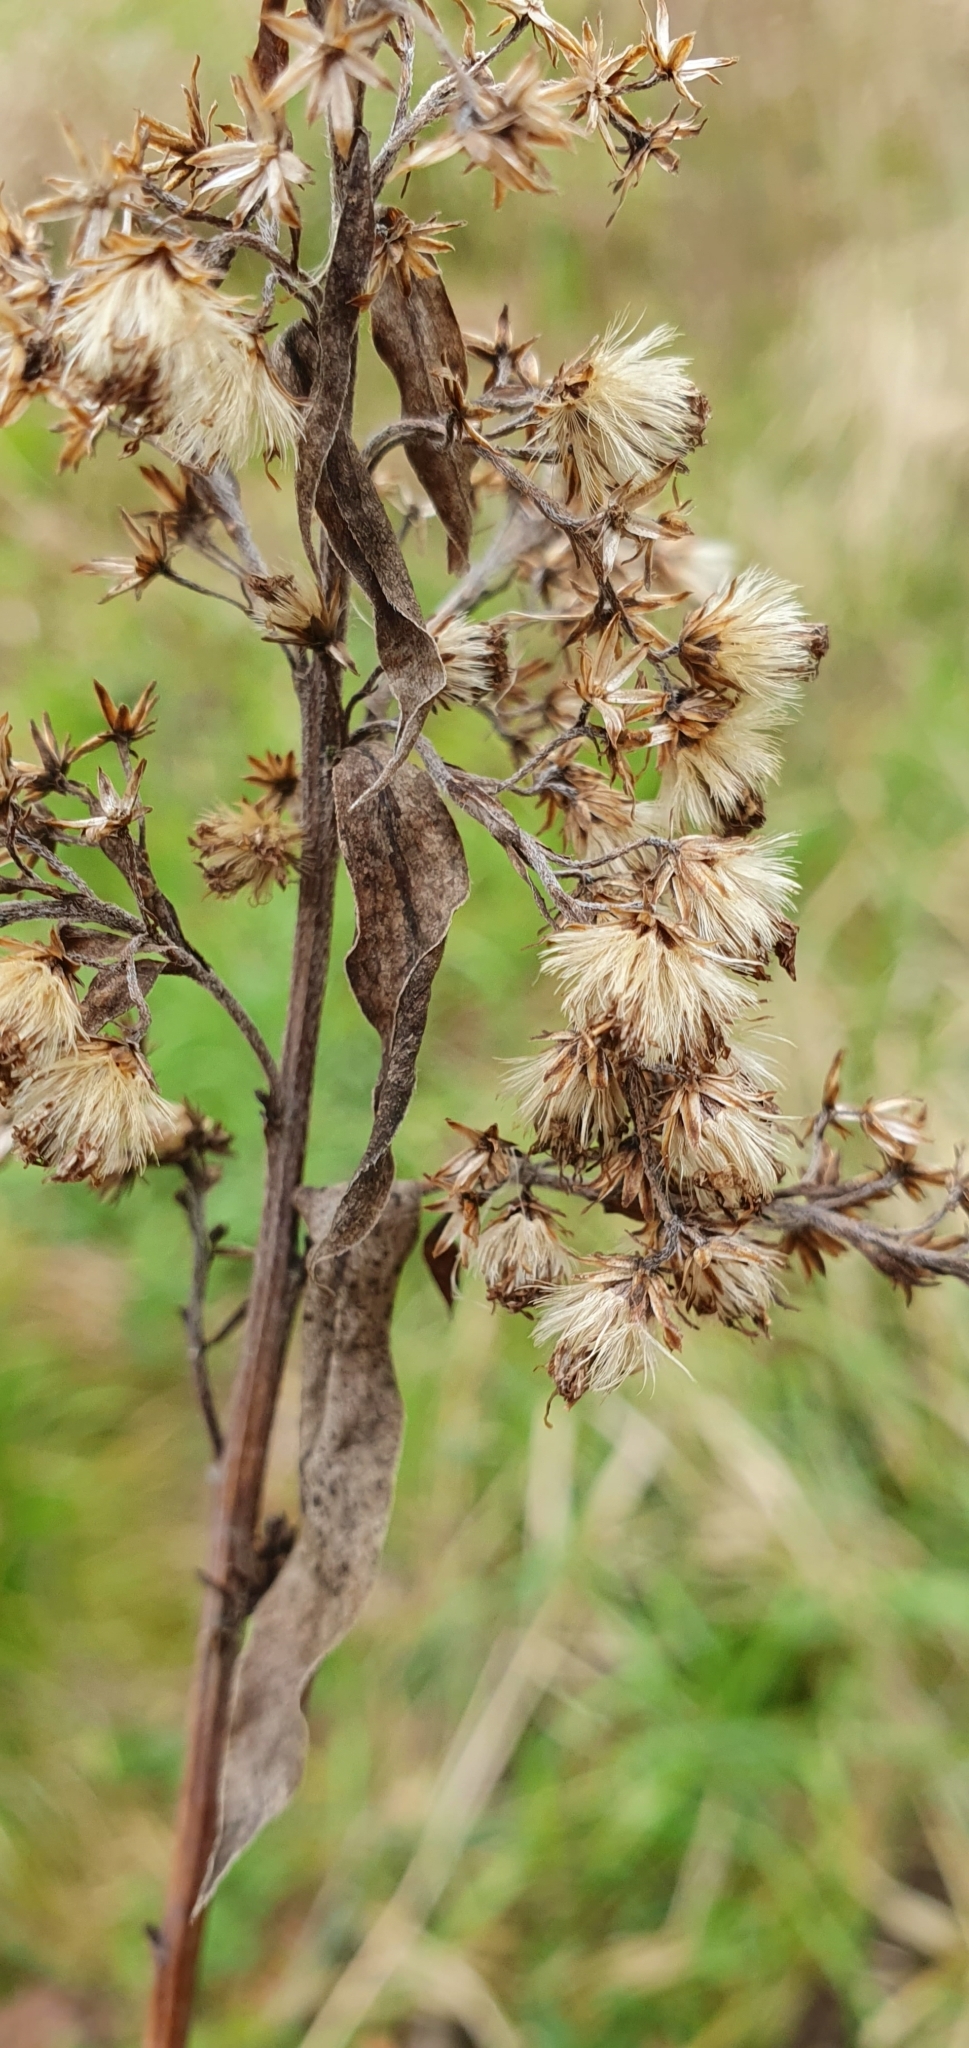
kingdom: Plantae
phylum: Tracheophyta
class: Magnoliopsida
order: Asterales
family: Asteraceae
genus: Solidago
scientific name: Solidago canadensis
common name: Canada goldenrod
